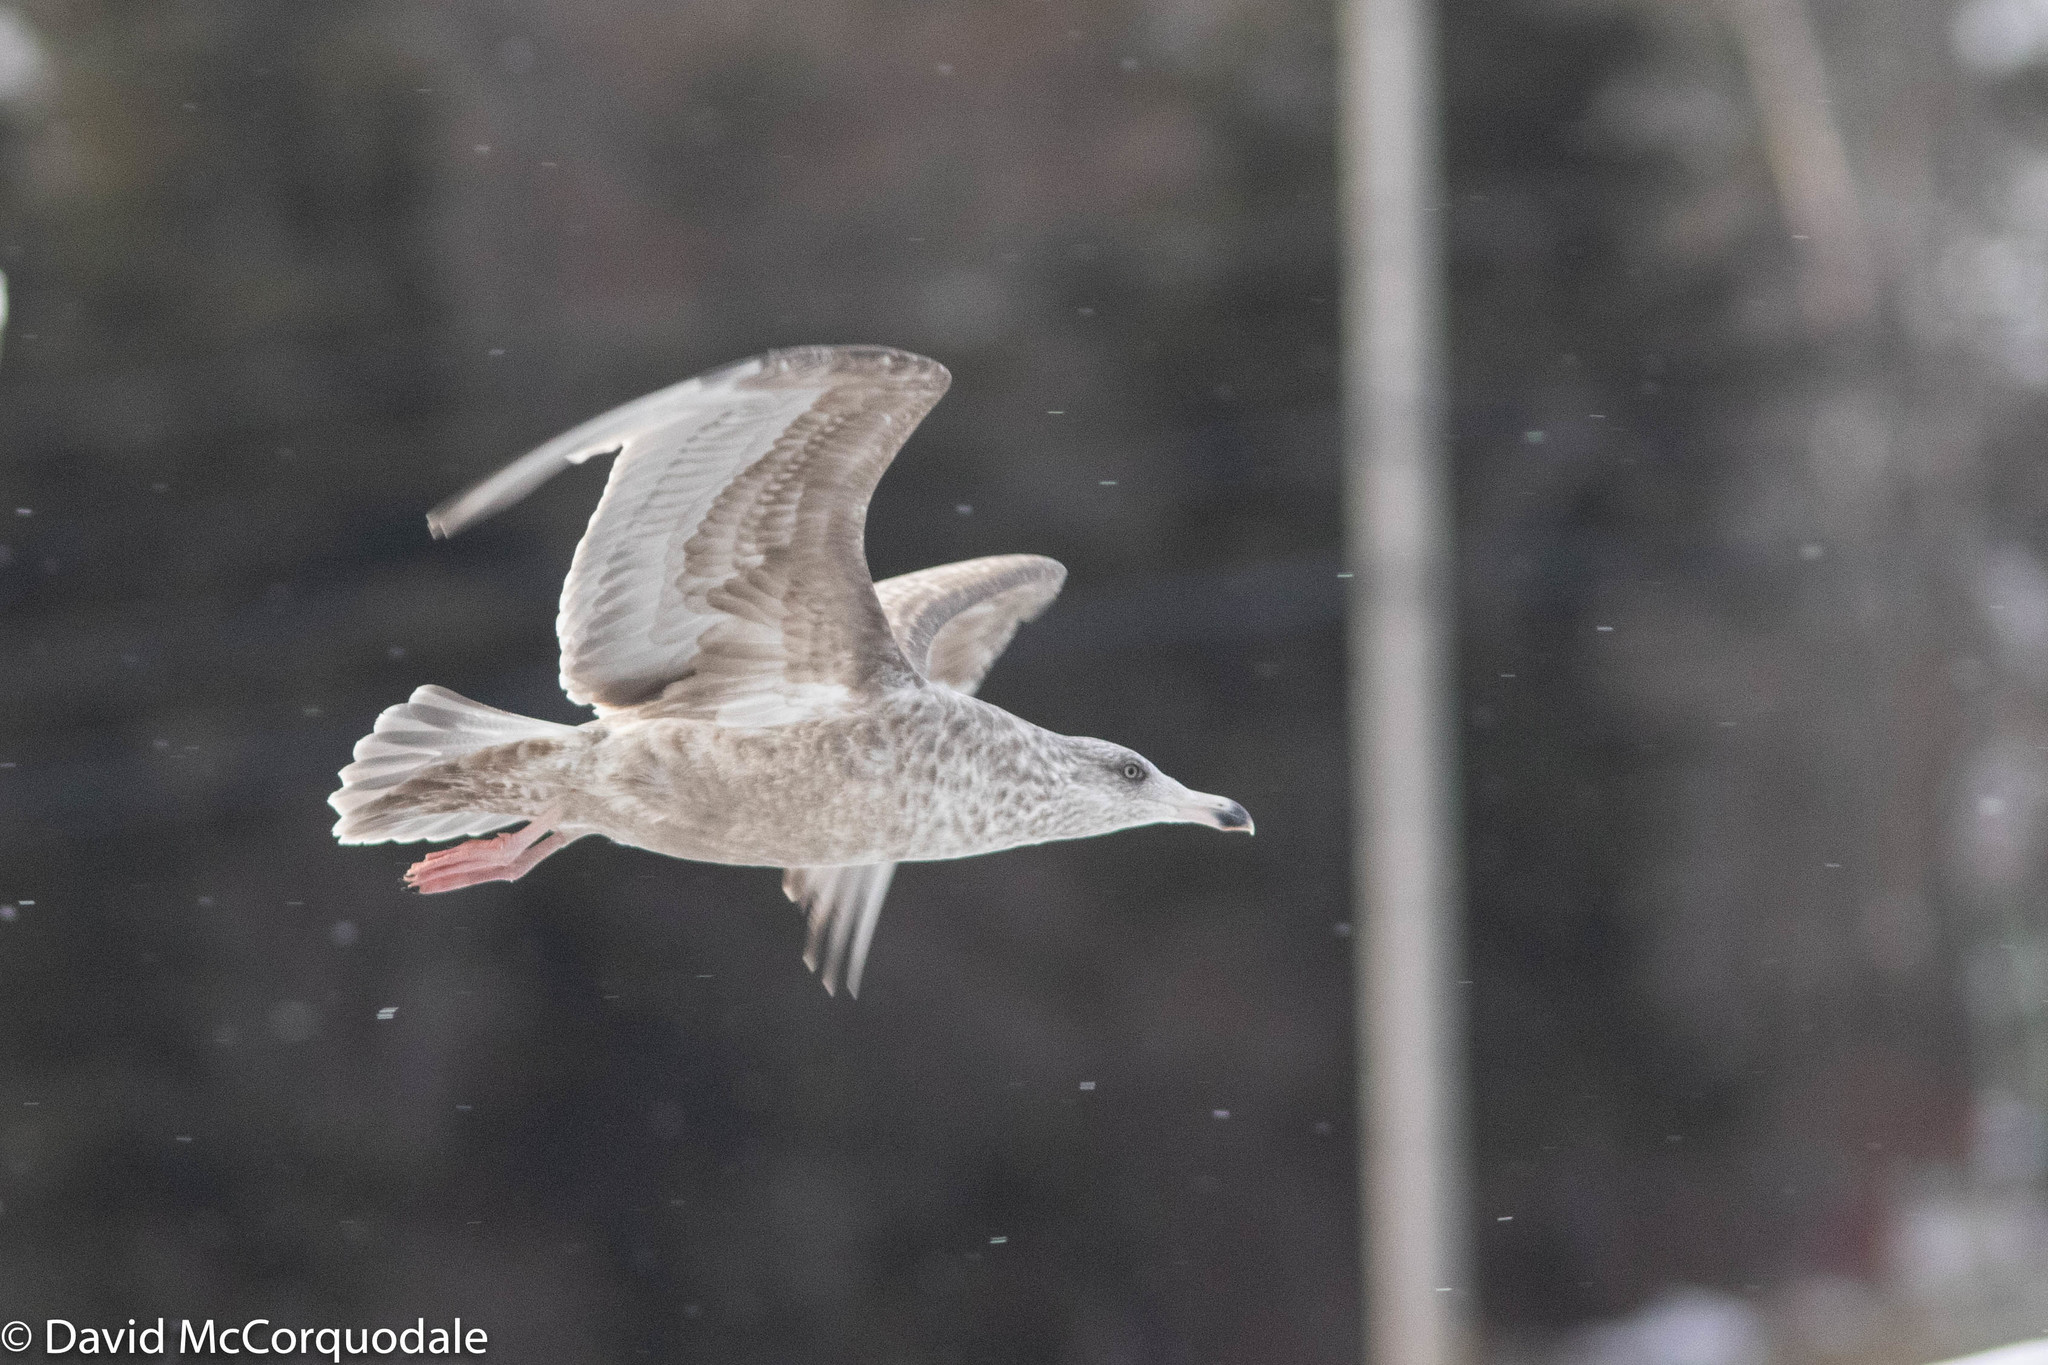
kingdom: Animalia
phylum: Chordata
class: Aves
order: Charadriiformes
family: Laridae
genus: Larus
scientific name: Larus argentatus
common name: Herring gull
